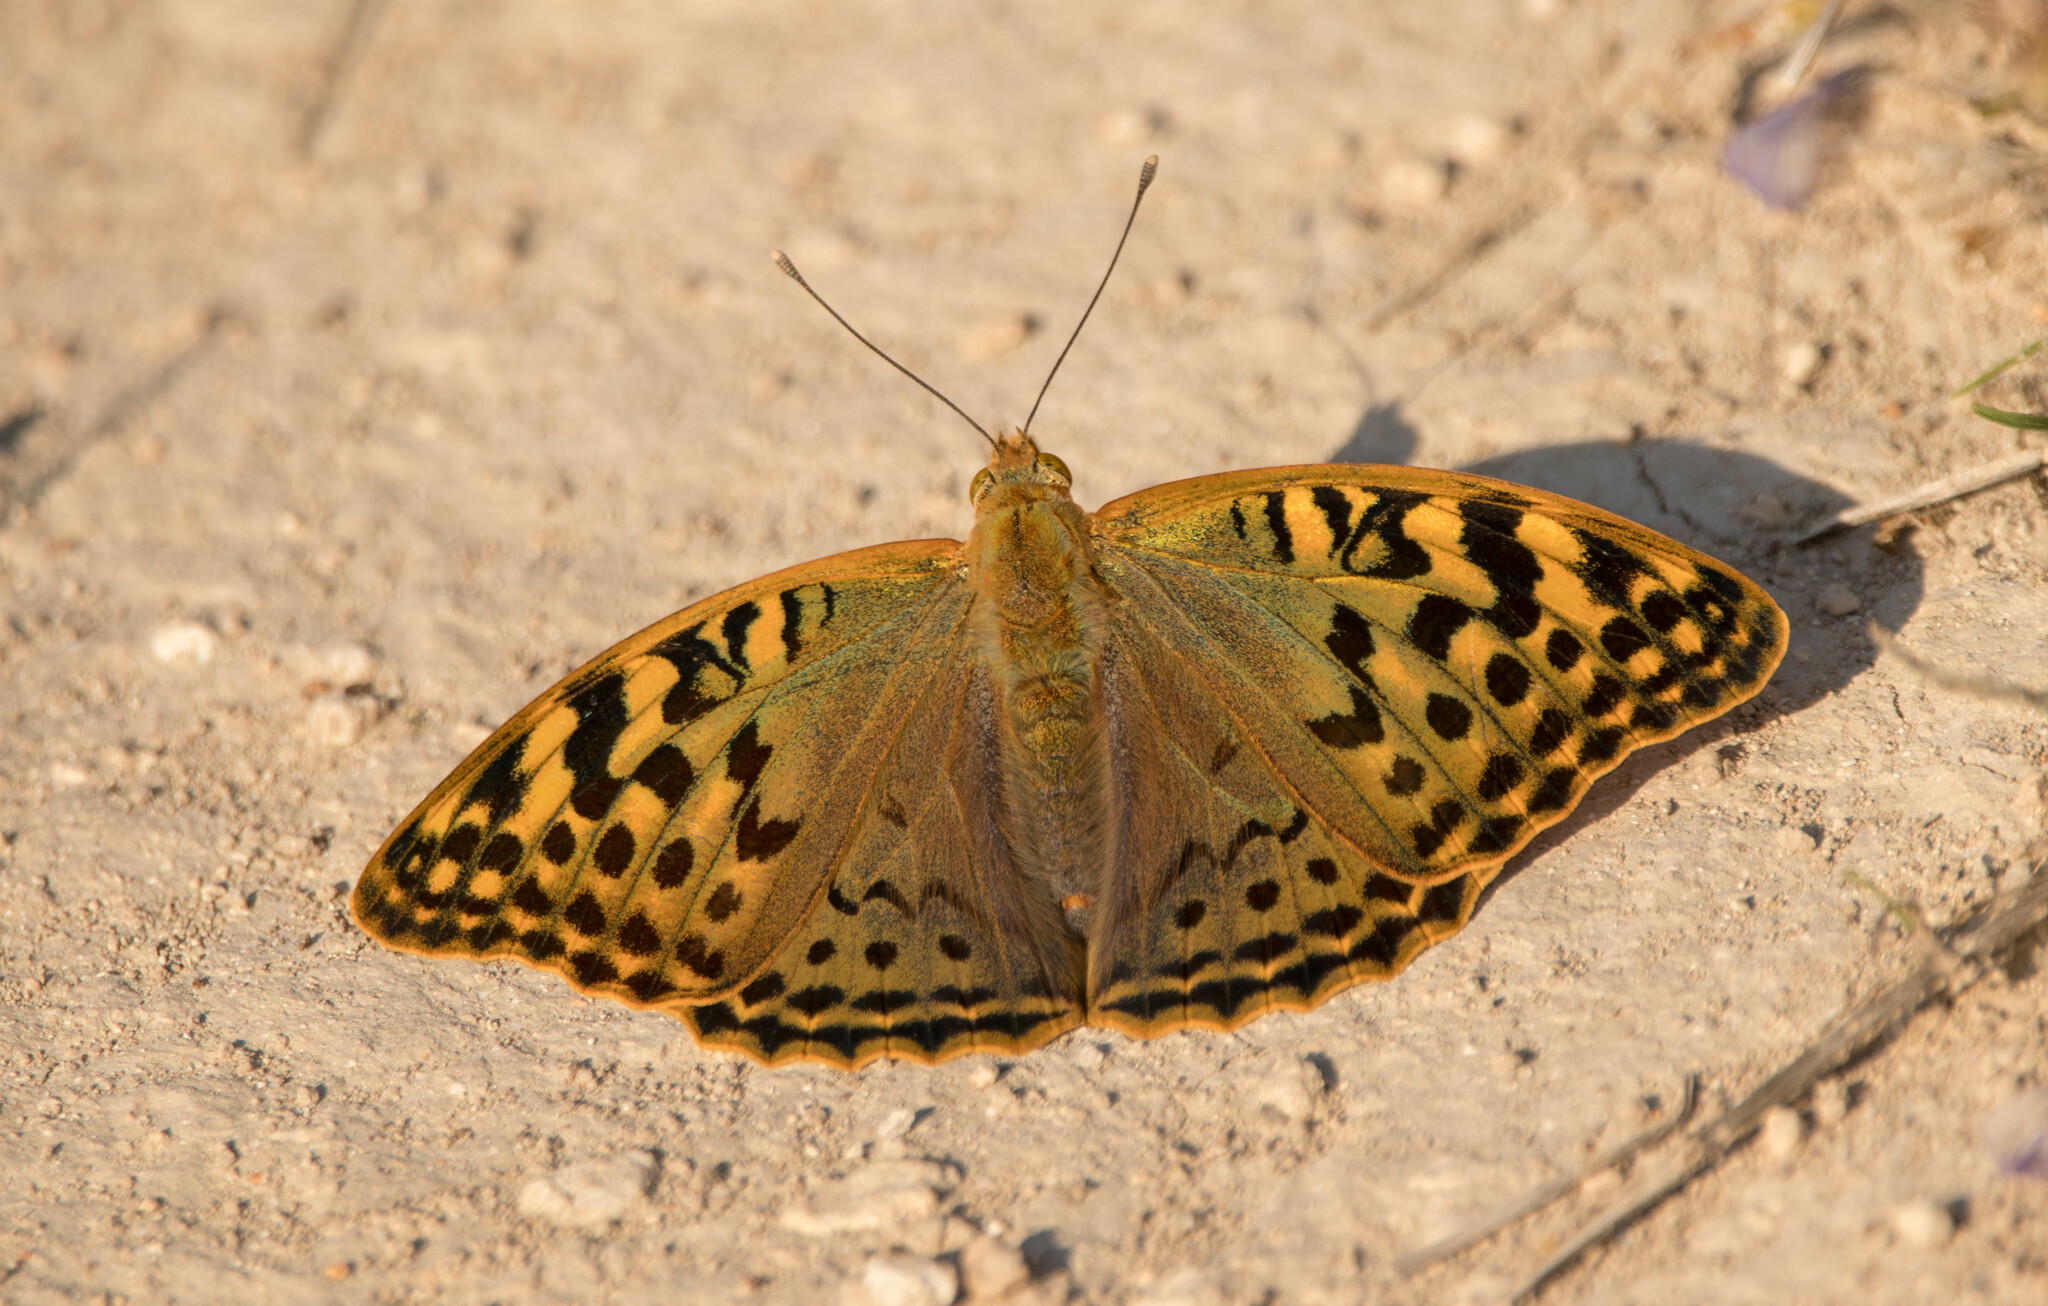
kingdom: Animalia
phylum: Arthropoda
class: Insecta
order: Lepidoptera
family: Nymphalidae
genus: Damora
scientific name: Damora pandora
